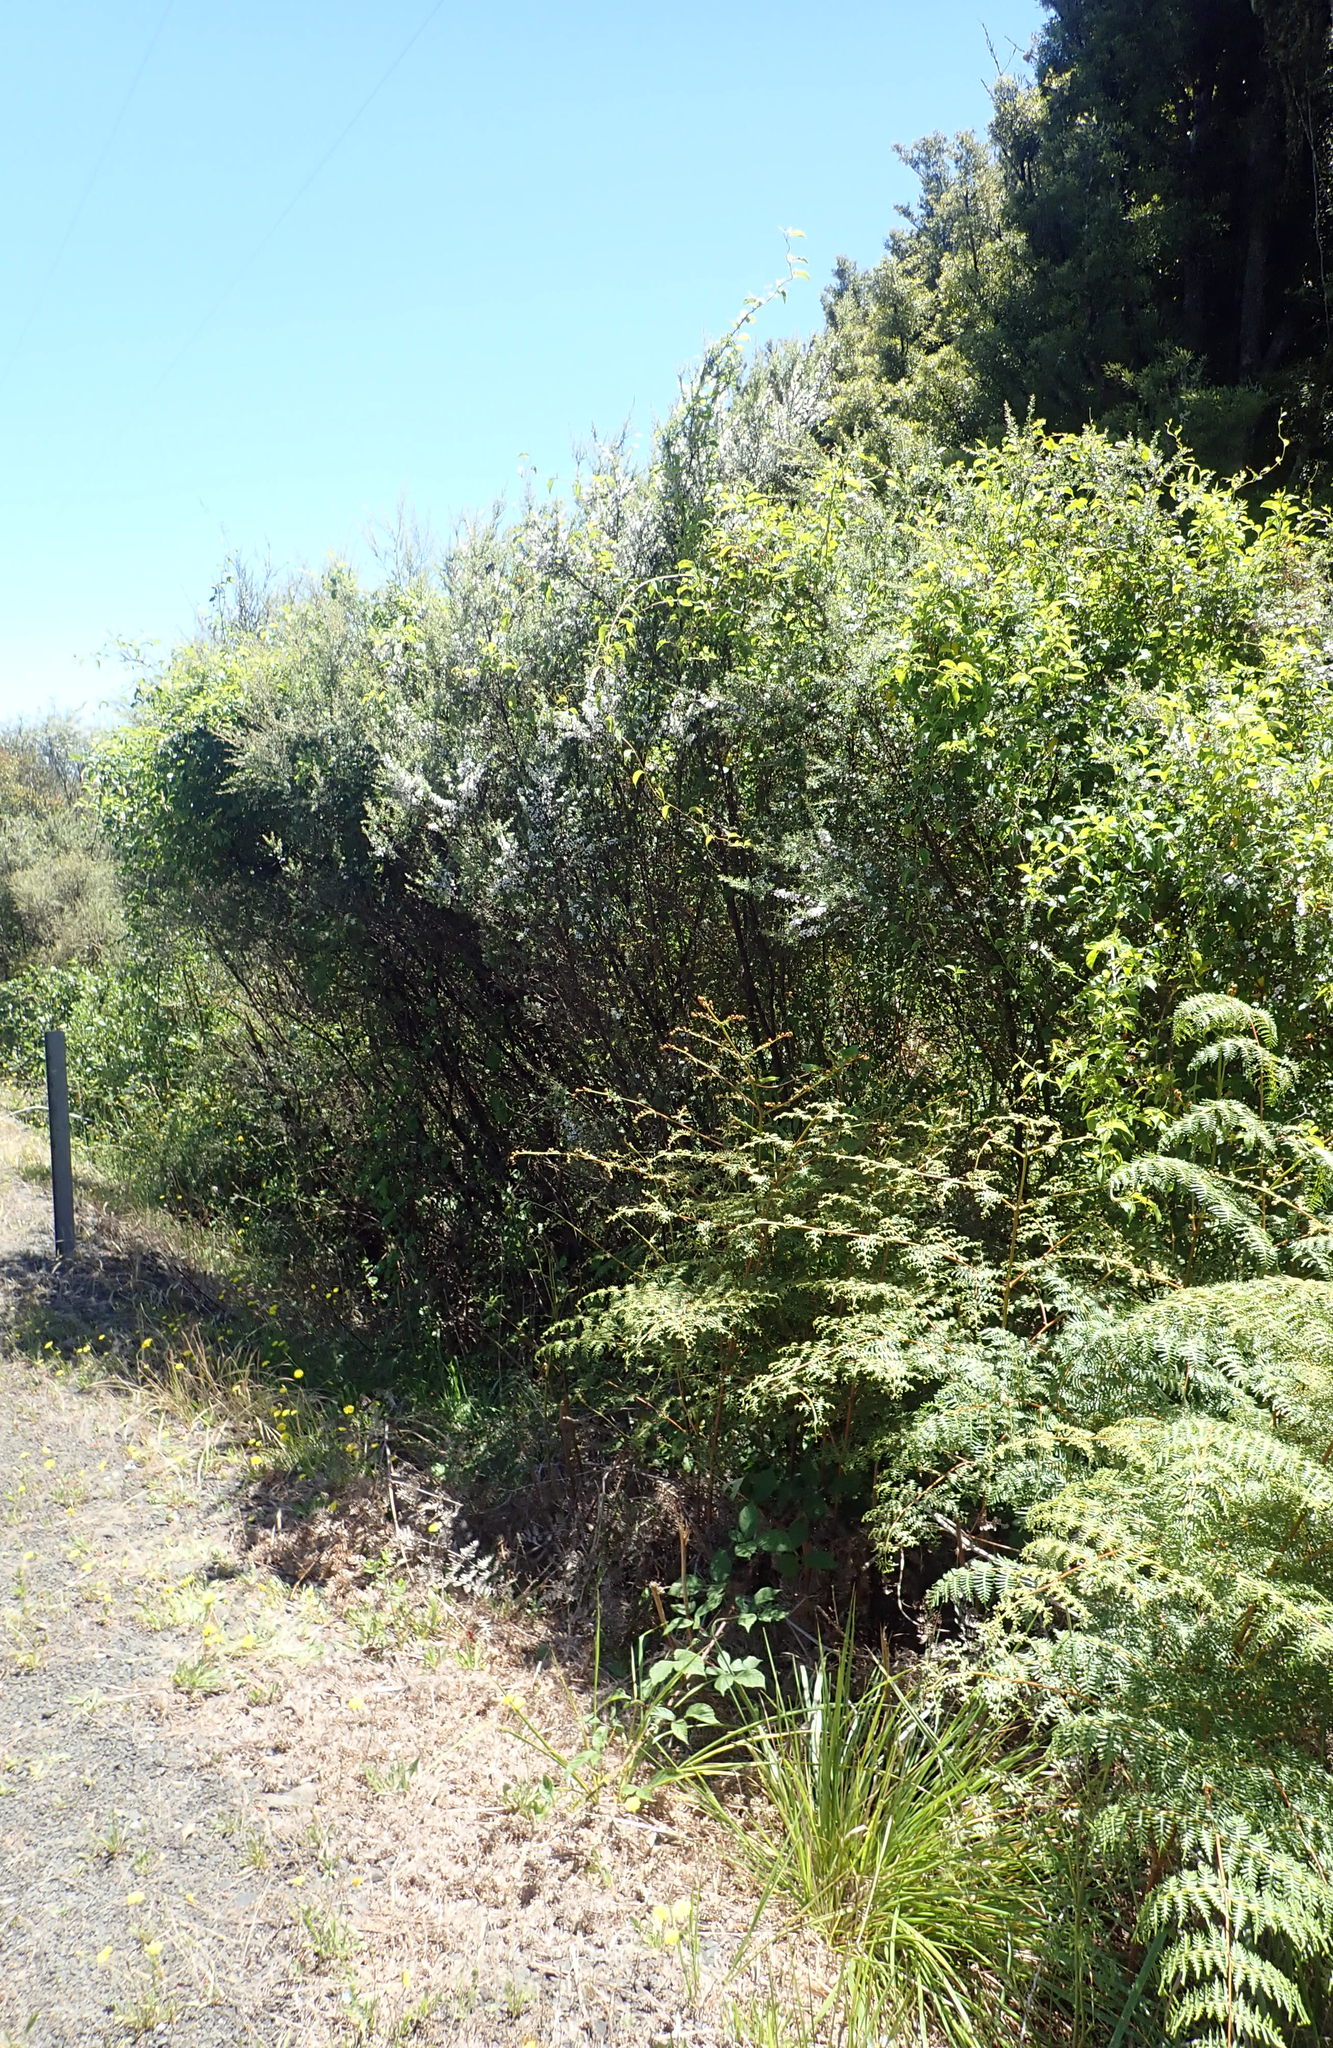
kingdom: Plantae
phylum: Tracheophyta
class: Magnoliopsida
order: Myrtales
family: Myrtaceae
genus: Leptospermum
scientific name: Leptospermum scoparium
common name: Broom tea-tree
